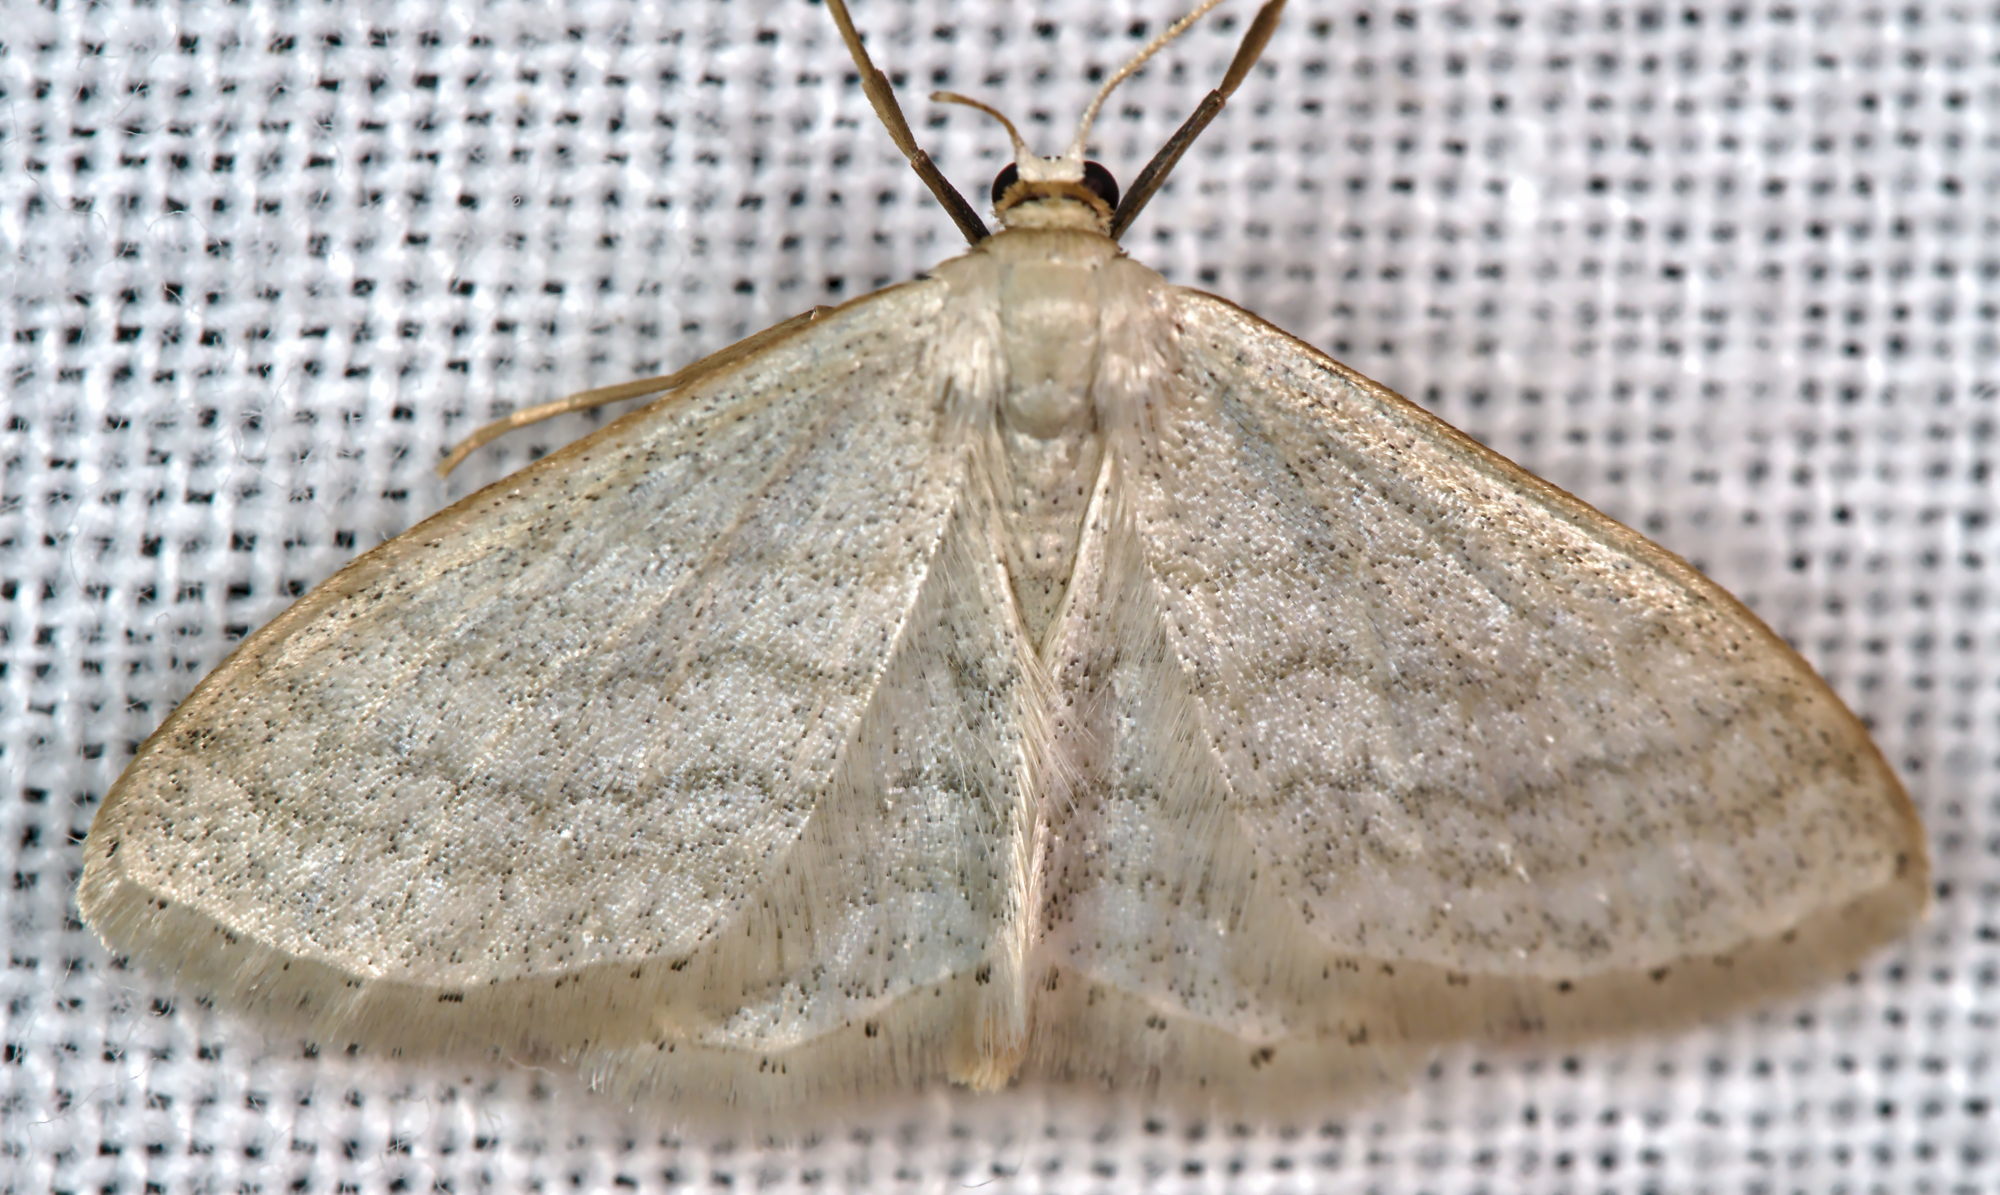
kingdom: Animalia
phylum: Arthropoda
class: Insecta
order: Lepidoptera
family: Geometridae
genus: Idaea
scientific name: Idaea subsericeata
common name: Satin wave
